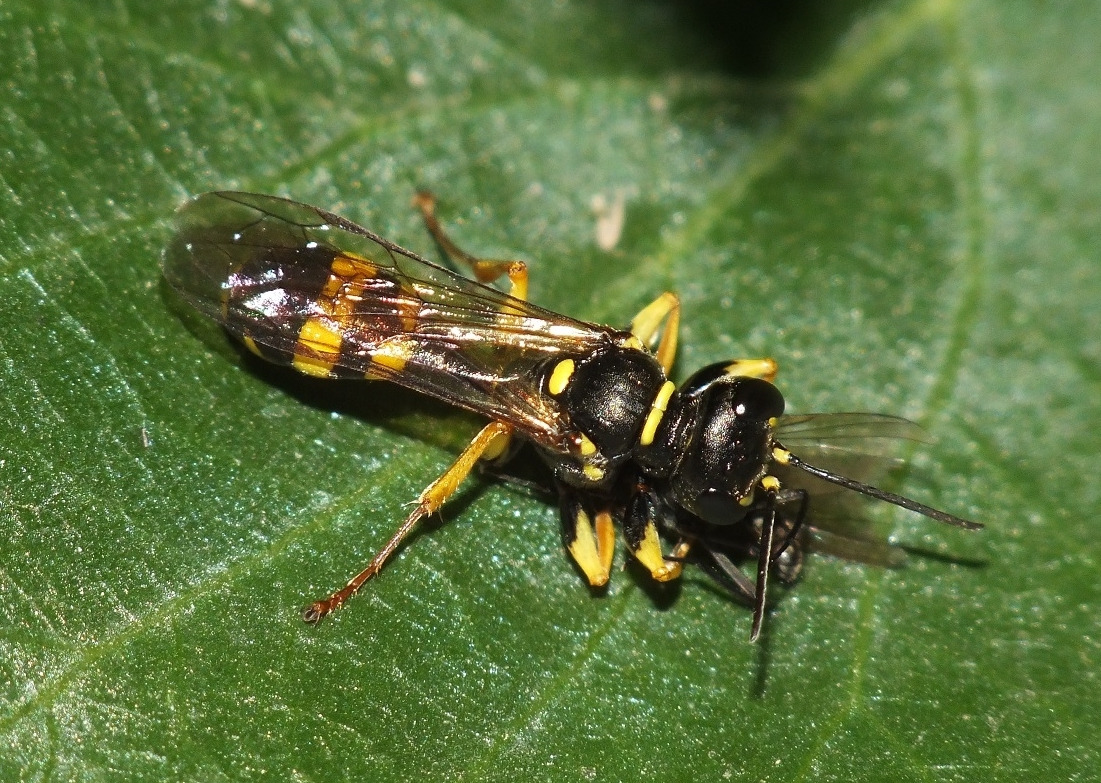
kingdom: Animalia
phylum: Arthropoda
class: Insecta
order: Hymenoptera
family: Crabronidae
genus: Mellinus
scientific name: Mellinus arvensis
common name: Field digger wasp
